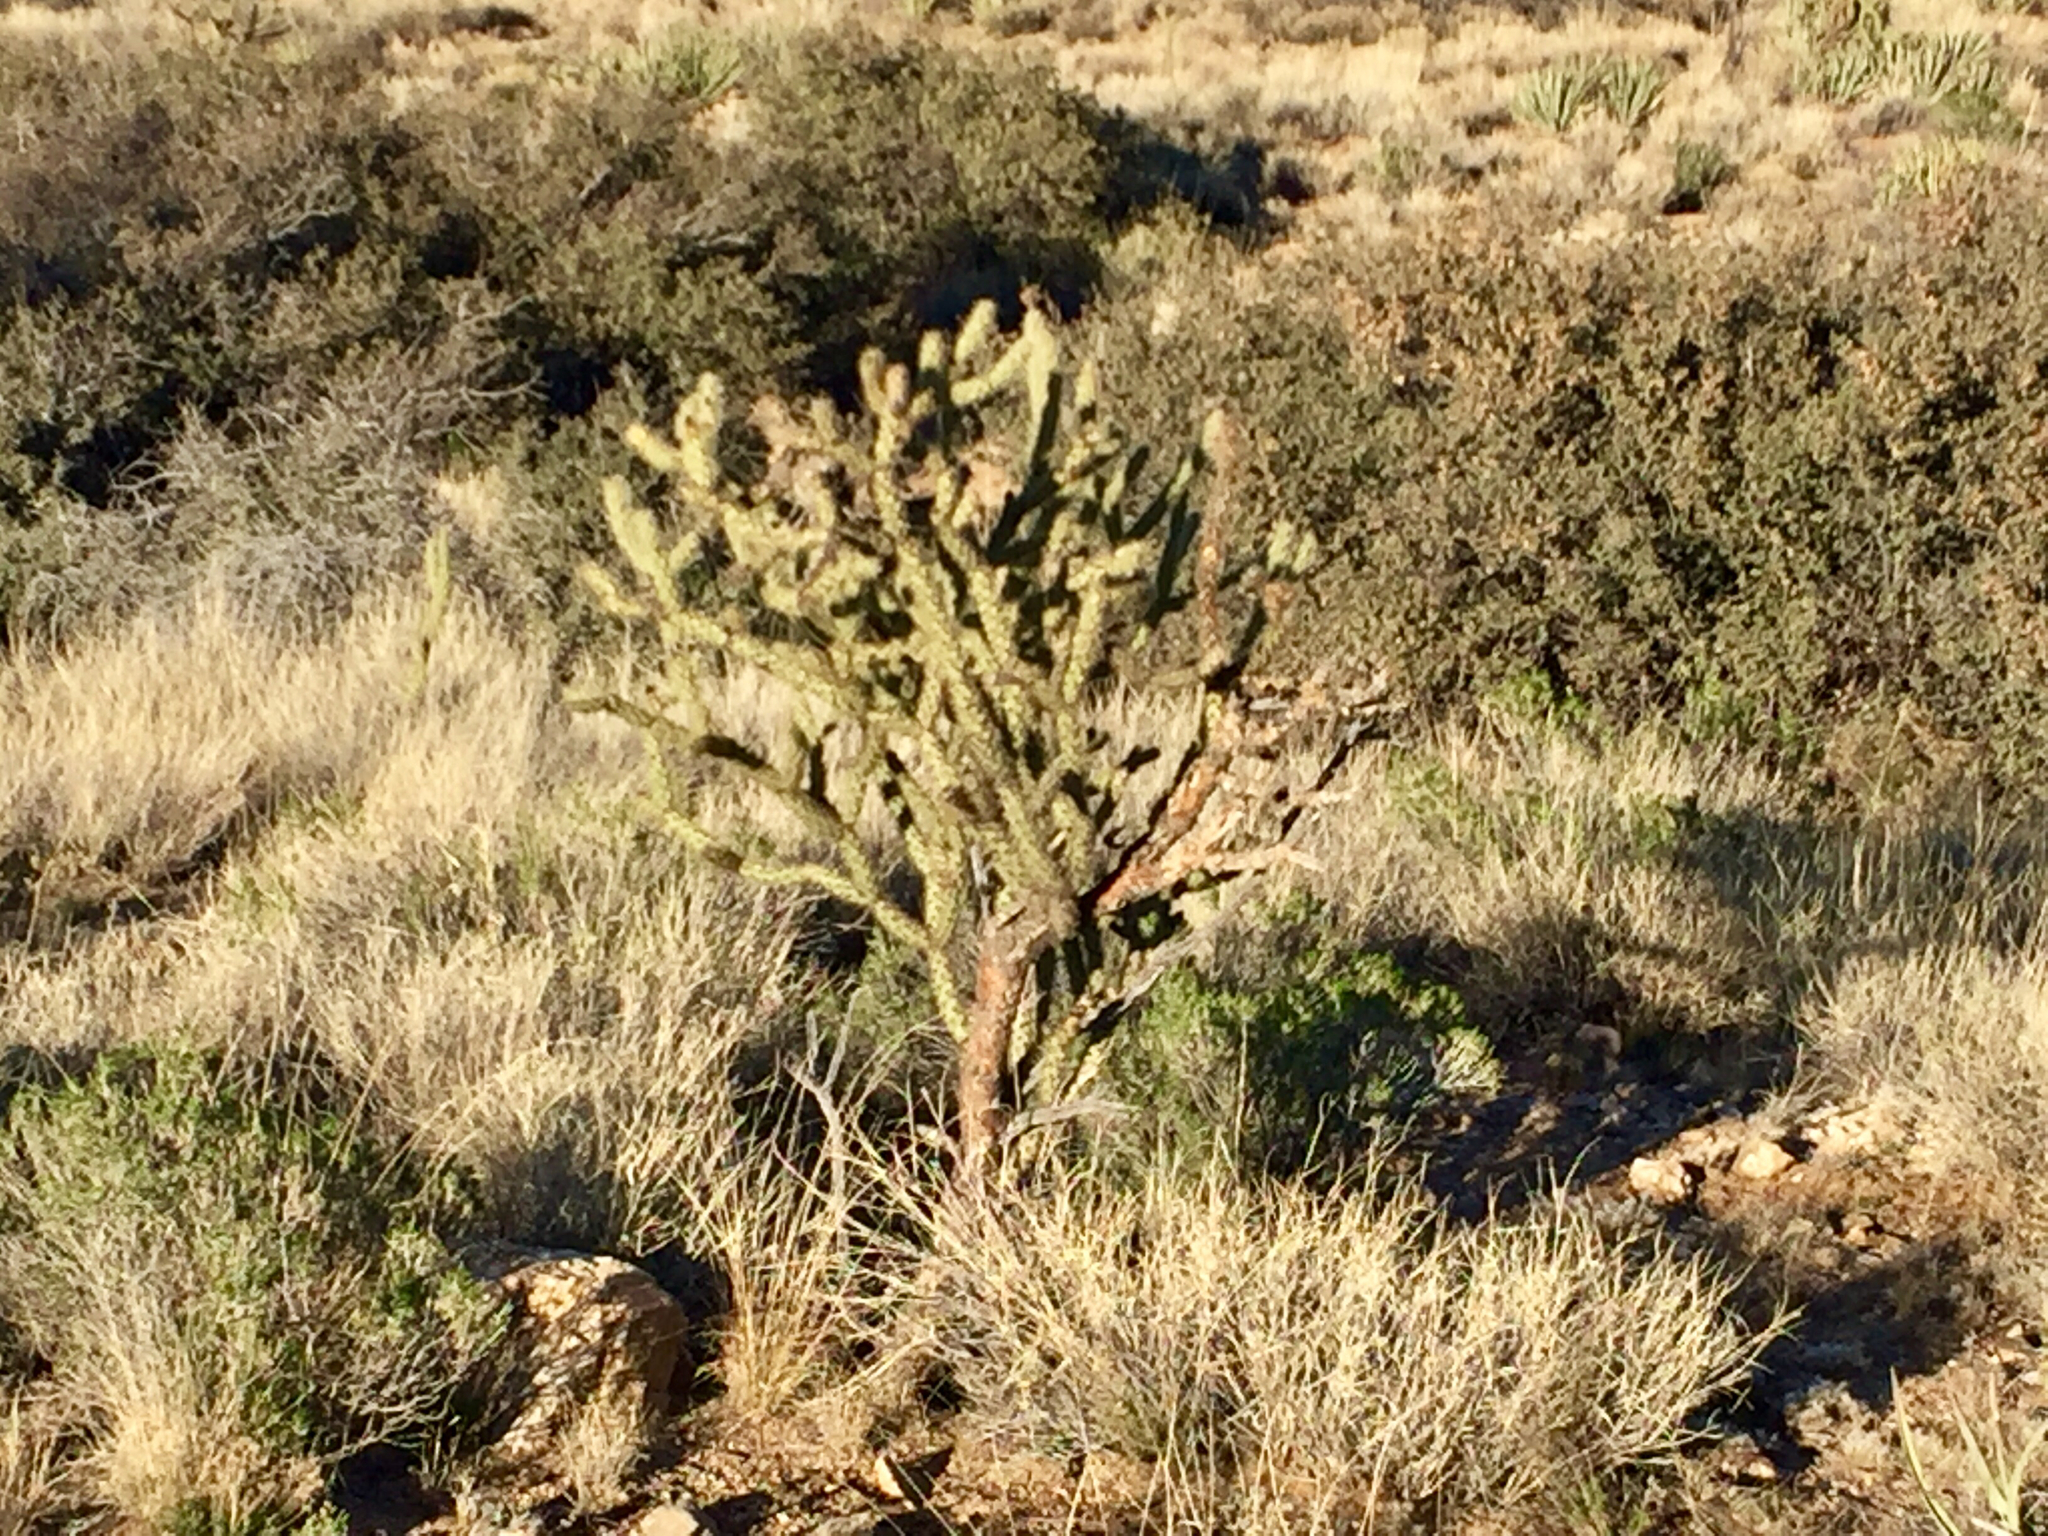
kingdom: Plantae
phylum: Tracheophyta
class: Magnoliopsida
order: Caryophyllales
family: Cactaceae
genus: Cylindropuntia
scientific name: Cylindropuntia acanthocarpa
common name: Buckhorn cholla
